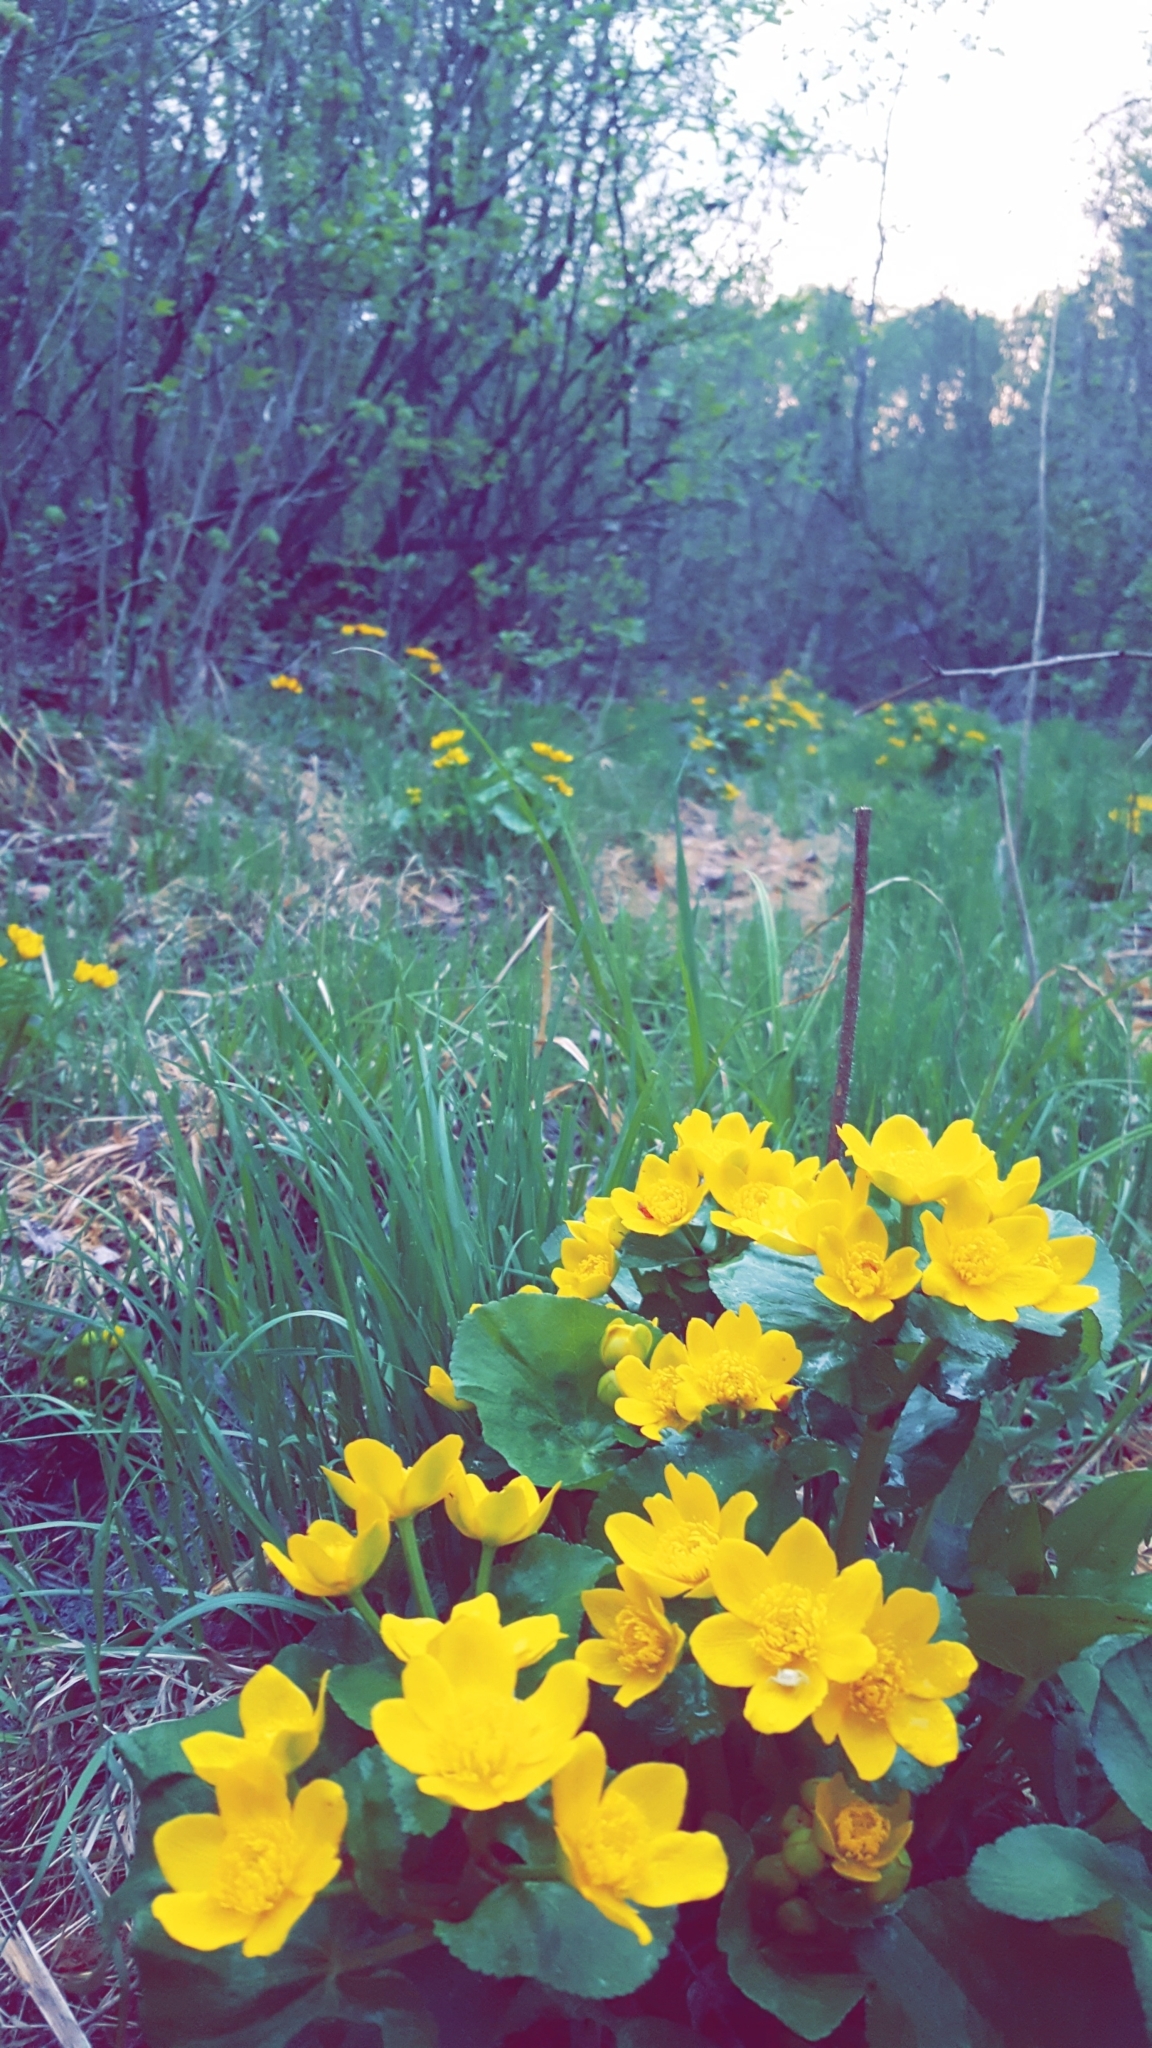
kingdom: Plantae
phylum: Tracheophyta
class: Magnoliopsida
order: Ranunculales
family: Ranunculaceae
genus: Caltha
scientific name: Caltha palustris
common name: Marsh marigold
